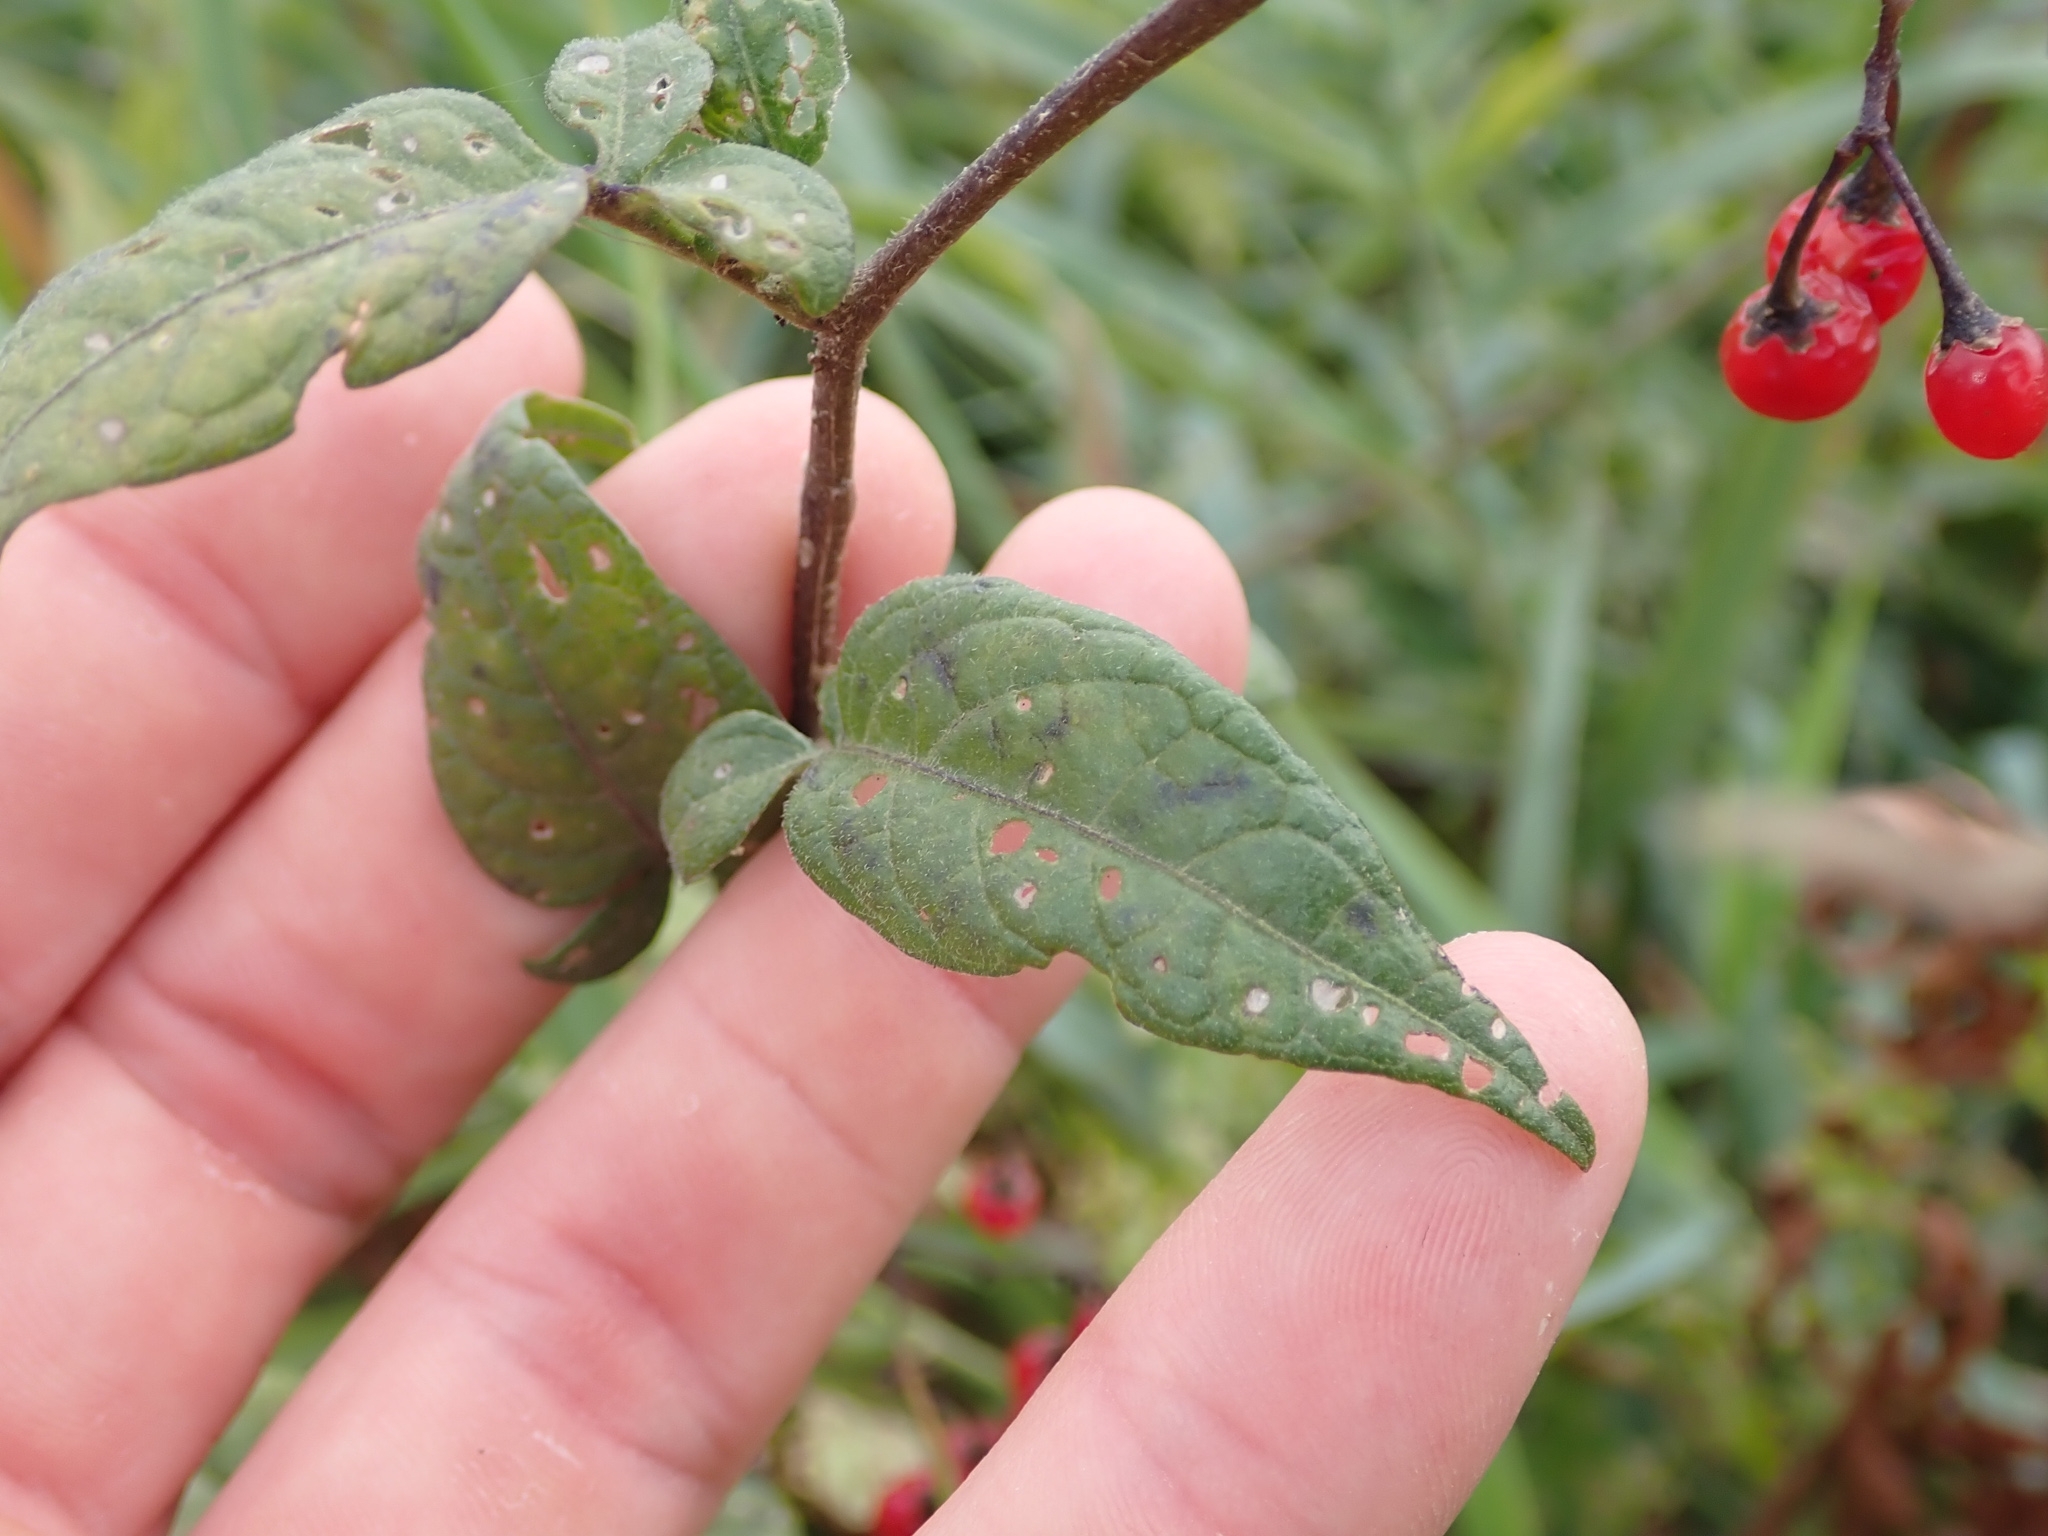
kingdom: Plantae
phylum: Tracheophyta
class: Magnoliopsida
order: Solanales
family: Solanaceae
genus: Solanum
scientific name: Solanum dulcamara
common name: Climbing nightshade
